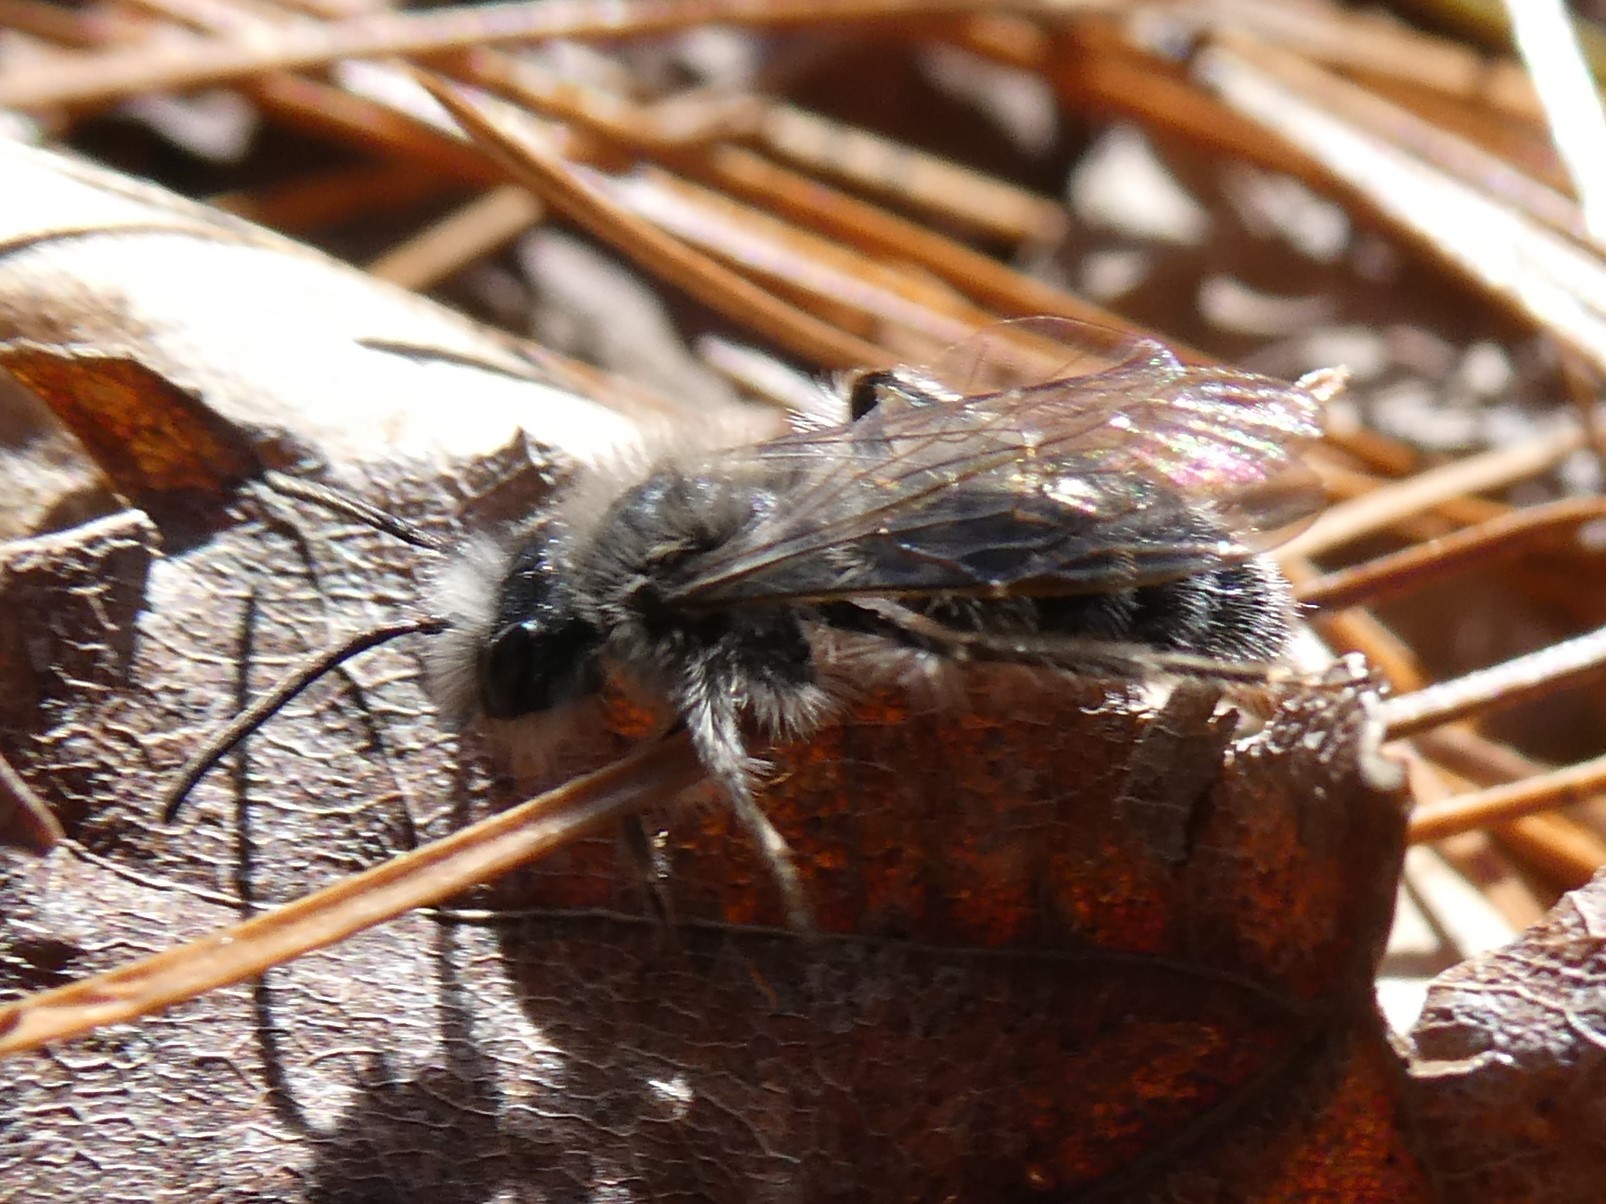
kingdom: Animalia
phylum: Arthropoda
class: Insecta
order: Hymenoptera
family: Andrenidae
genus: Andrena
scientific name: Andrena frigida
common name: Frigid mining bee
